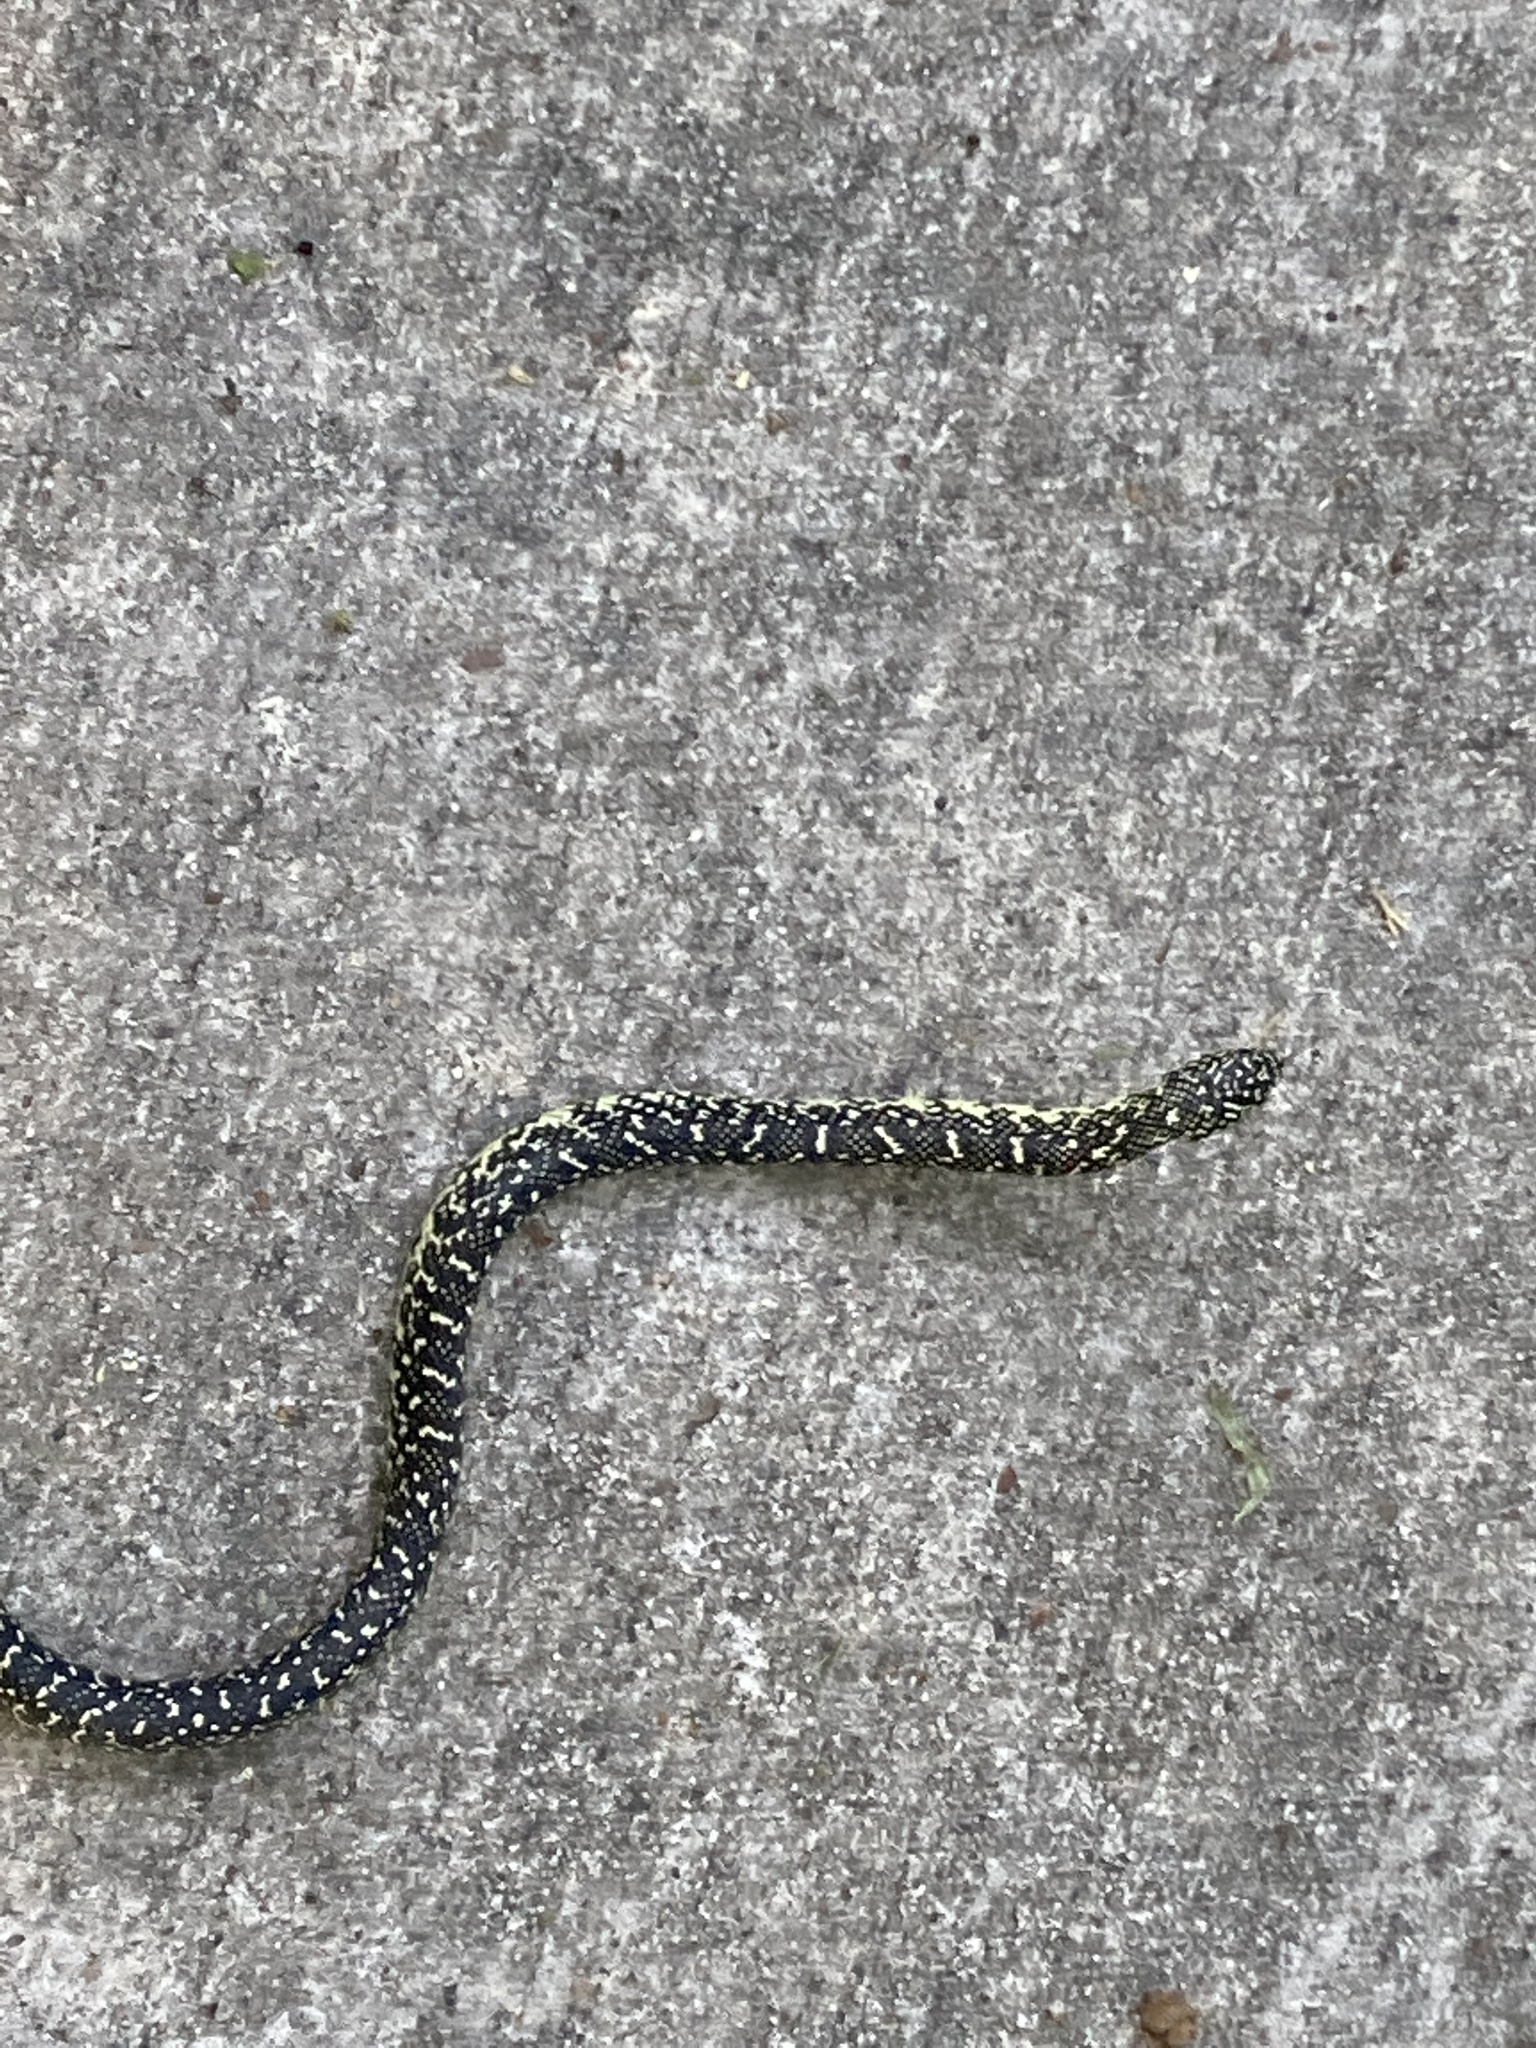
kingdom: Animalia
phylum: Chordata
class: Squamata
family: Colubridae
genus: Lampropeltis
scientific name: Lampropeltis holbrooki
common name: Speckled kingsnake
